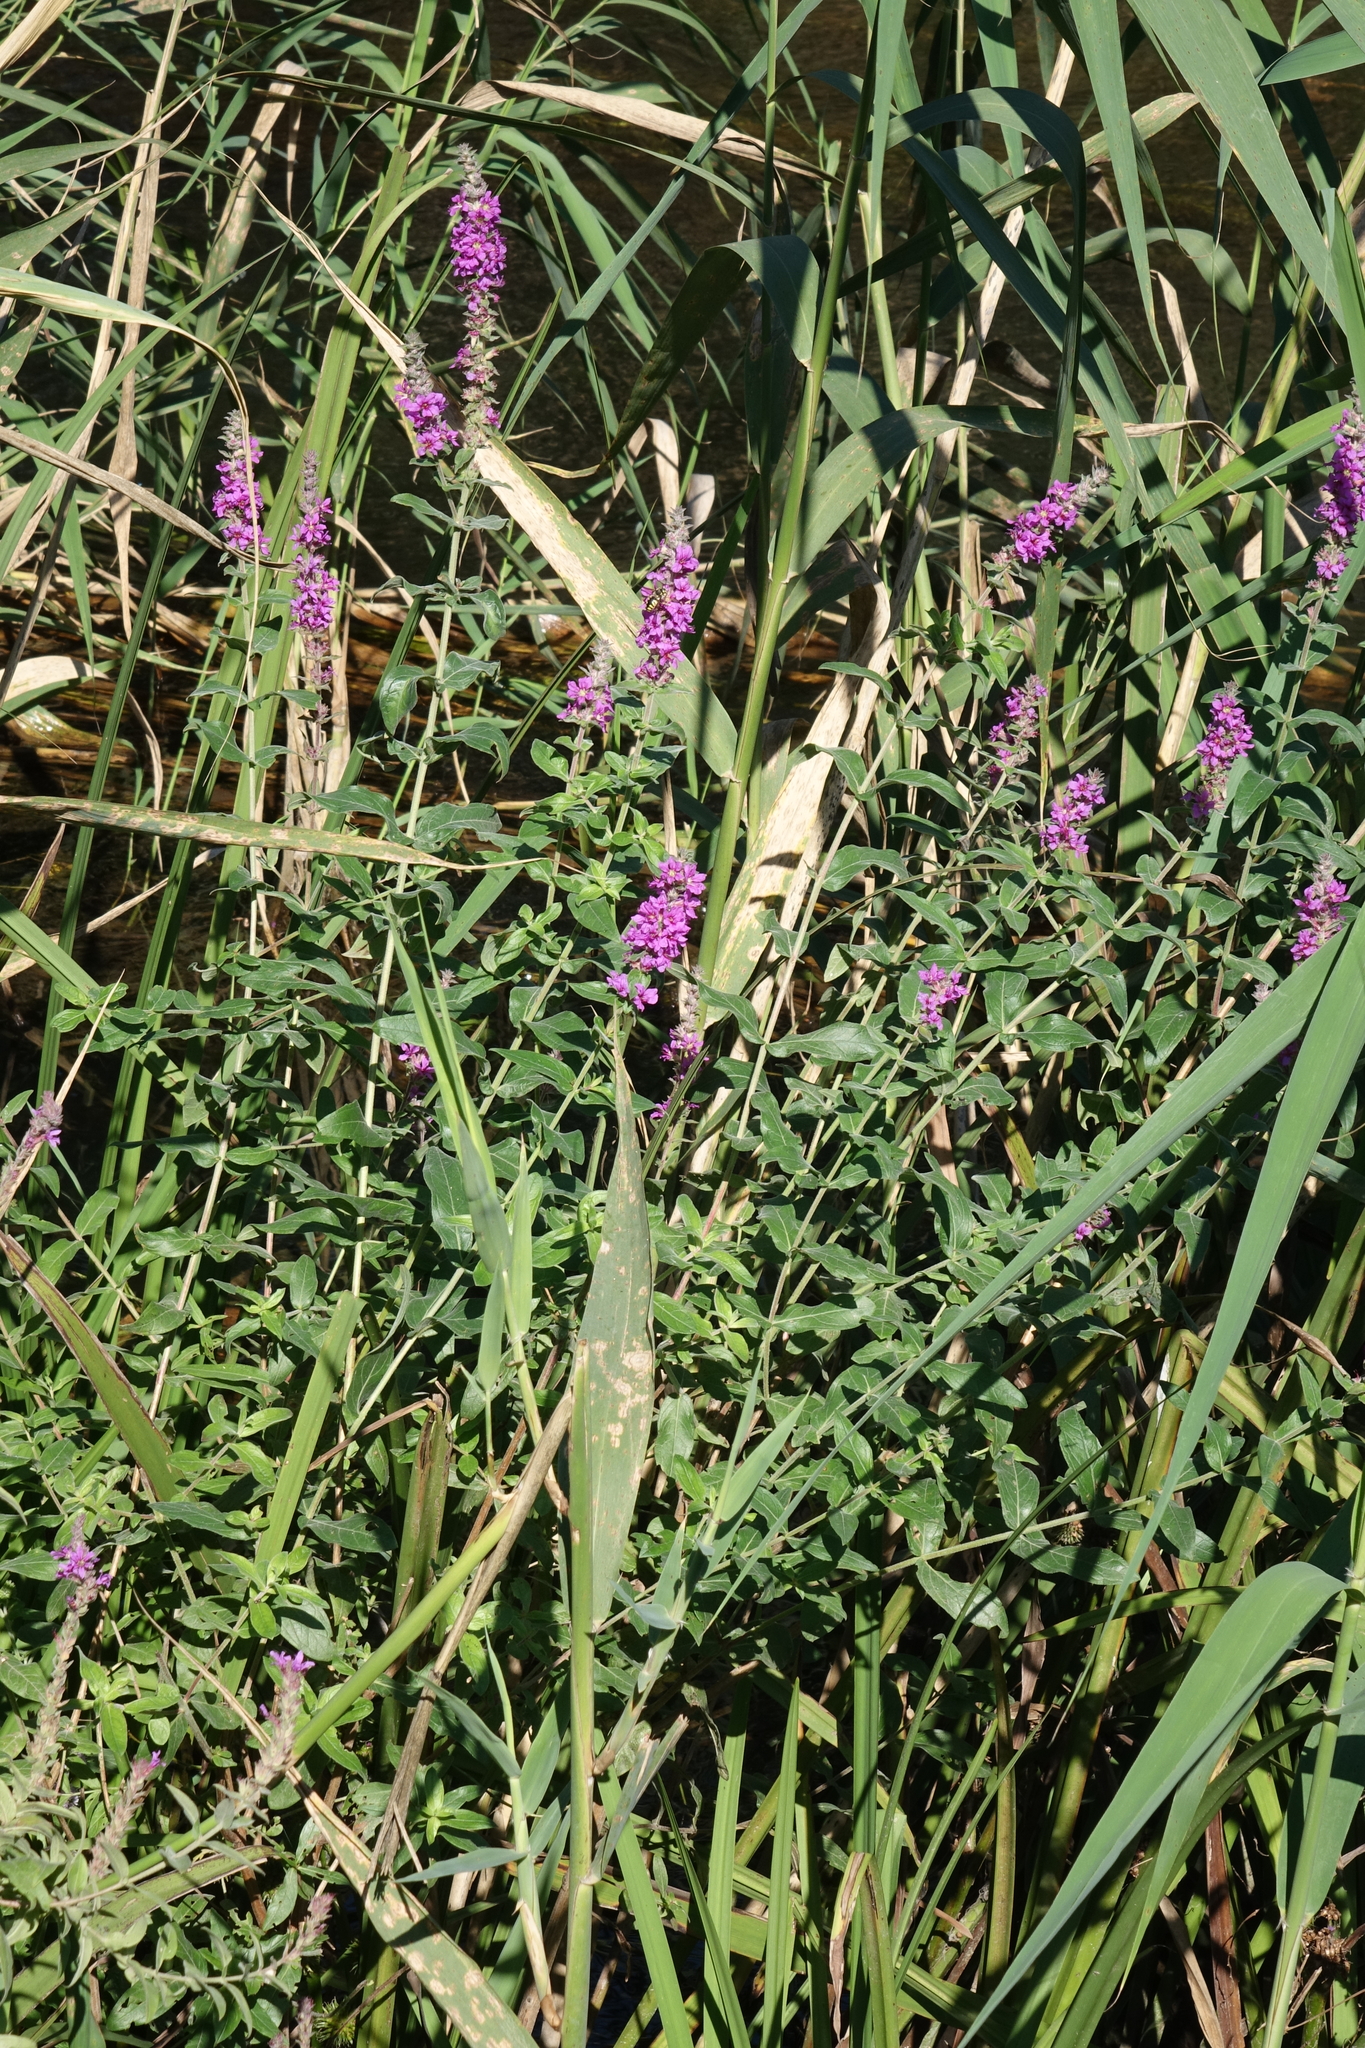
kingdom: Plantae
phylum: Tracheophyta
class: Magnoliopsida
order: Myrtales
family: Lythraceae
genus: Lythrum
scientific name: Lythrum salicaria
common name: Purple loosestrife
